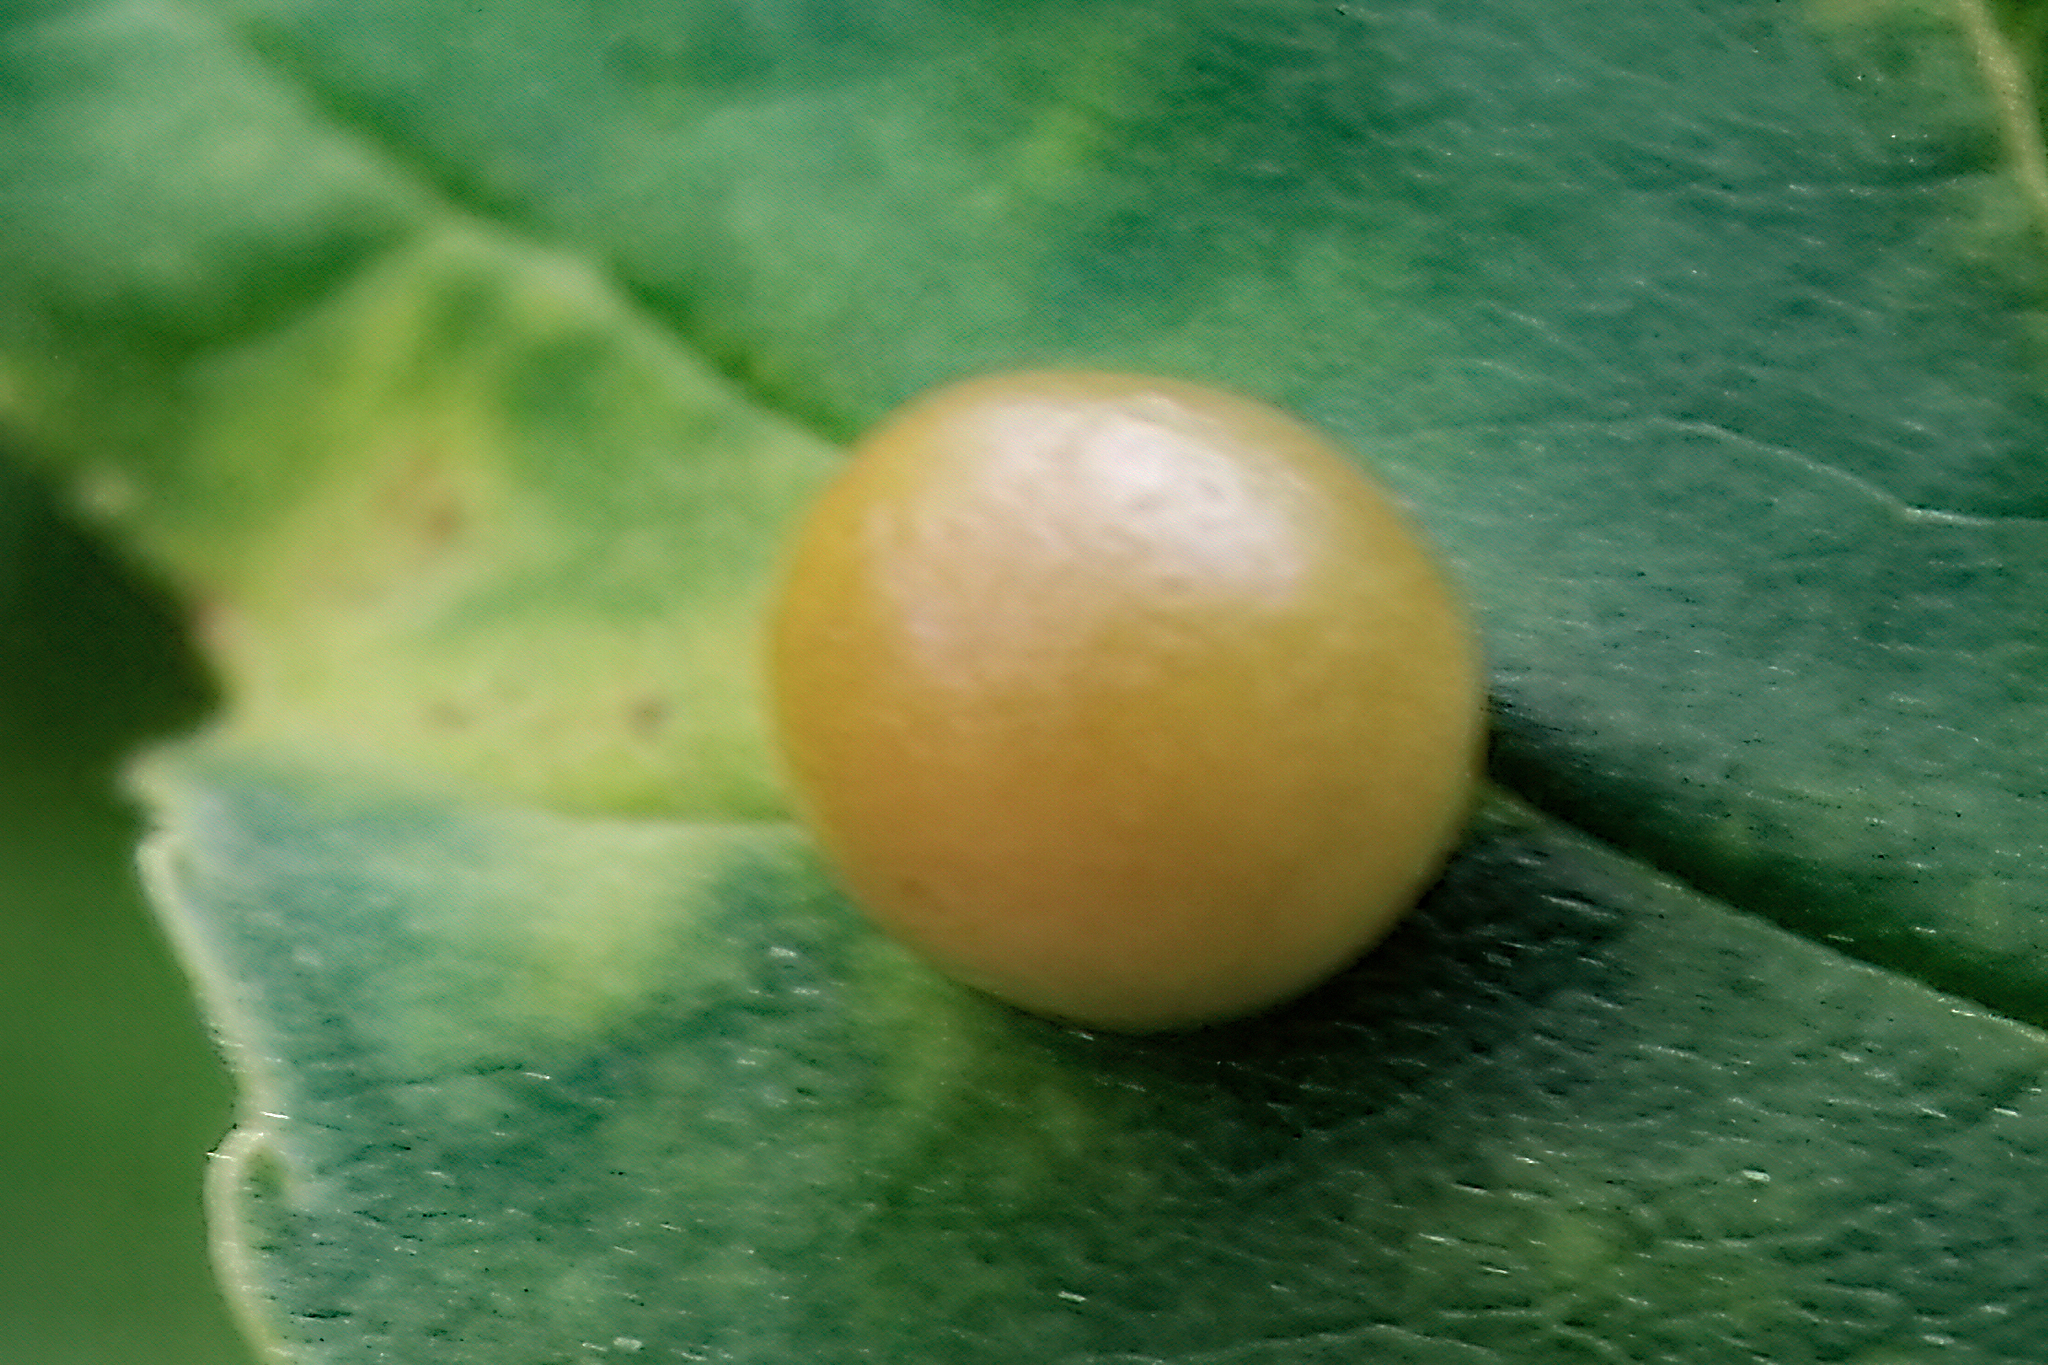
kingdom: Animalia
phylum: Arthropoda
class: Insecta
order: Diptera
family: Cecidomyiidae
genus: Dasineura
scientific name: Dasineura pellex
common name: Ash bullet gall midge
